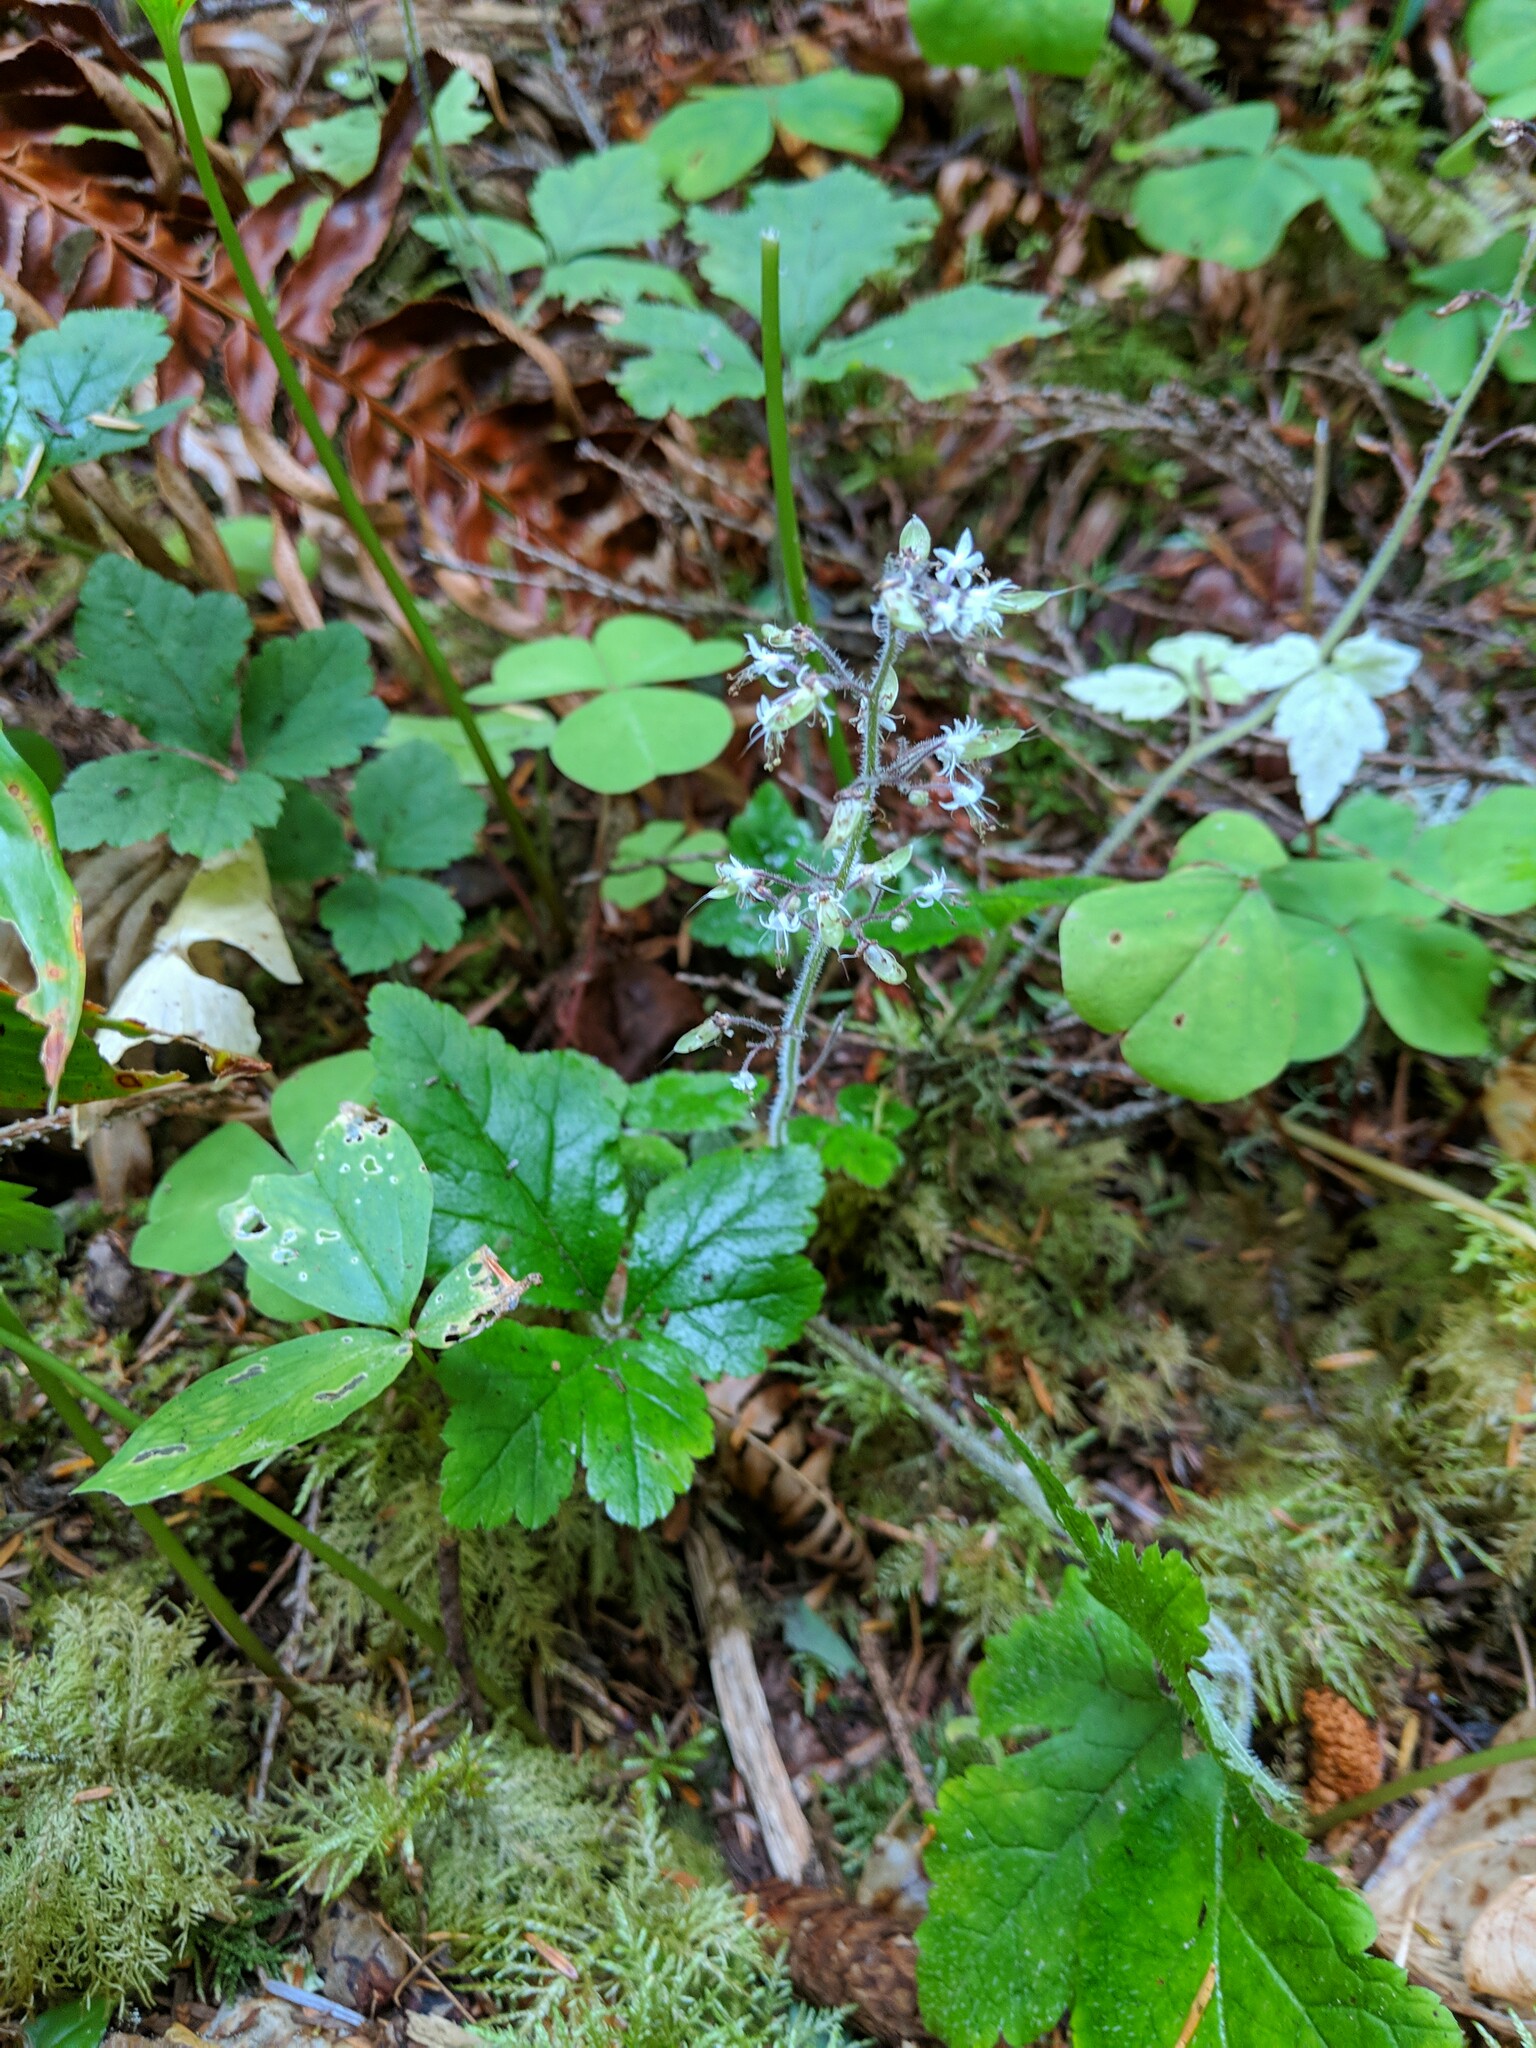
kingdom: Plantae
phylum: Tracheophyta
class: Magnoliopsida
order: Saxifragales
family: Saxifragaceae
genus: Tiarella
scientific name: Tiarella trifoliata
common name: Sugar-scoop
